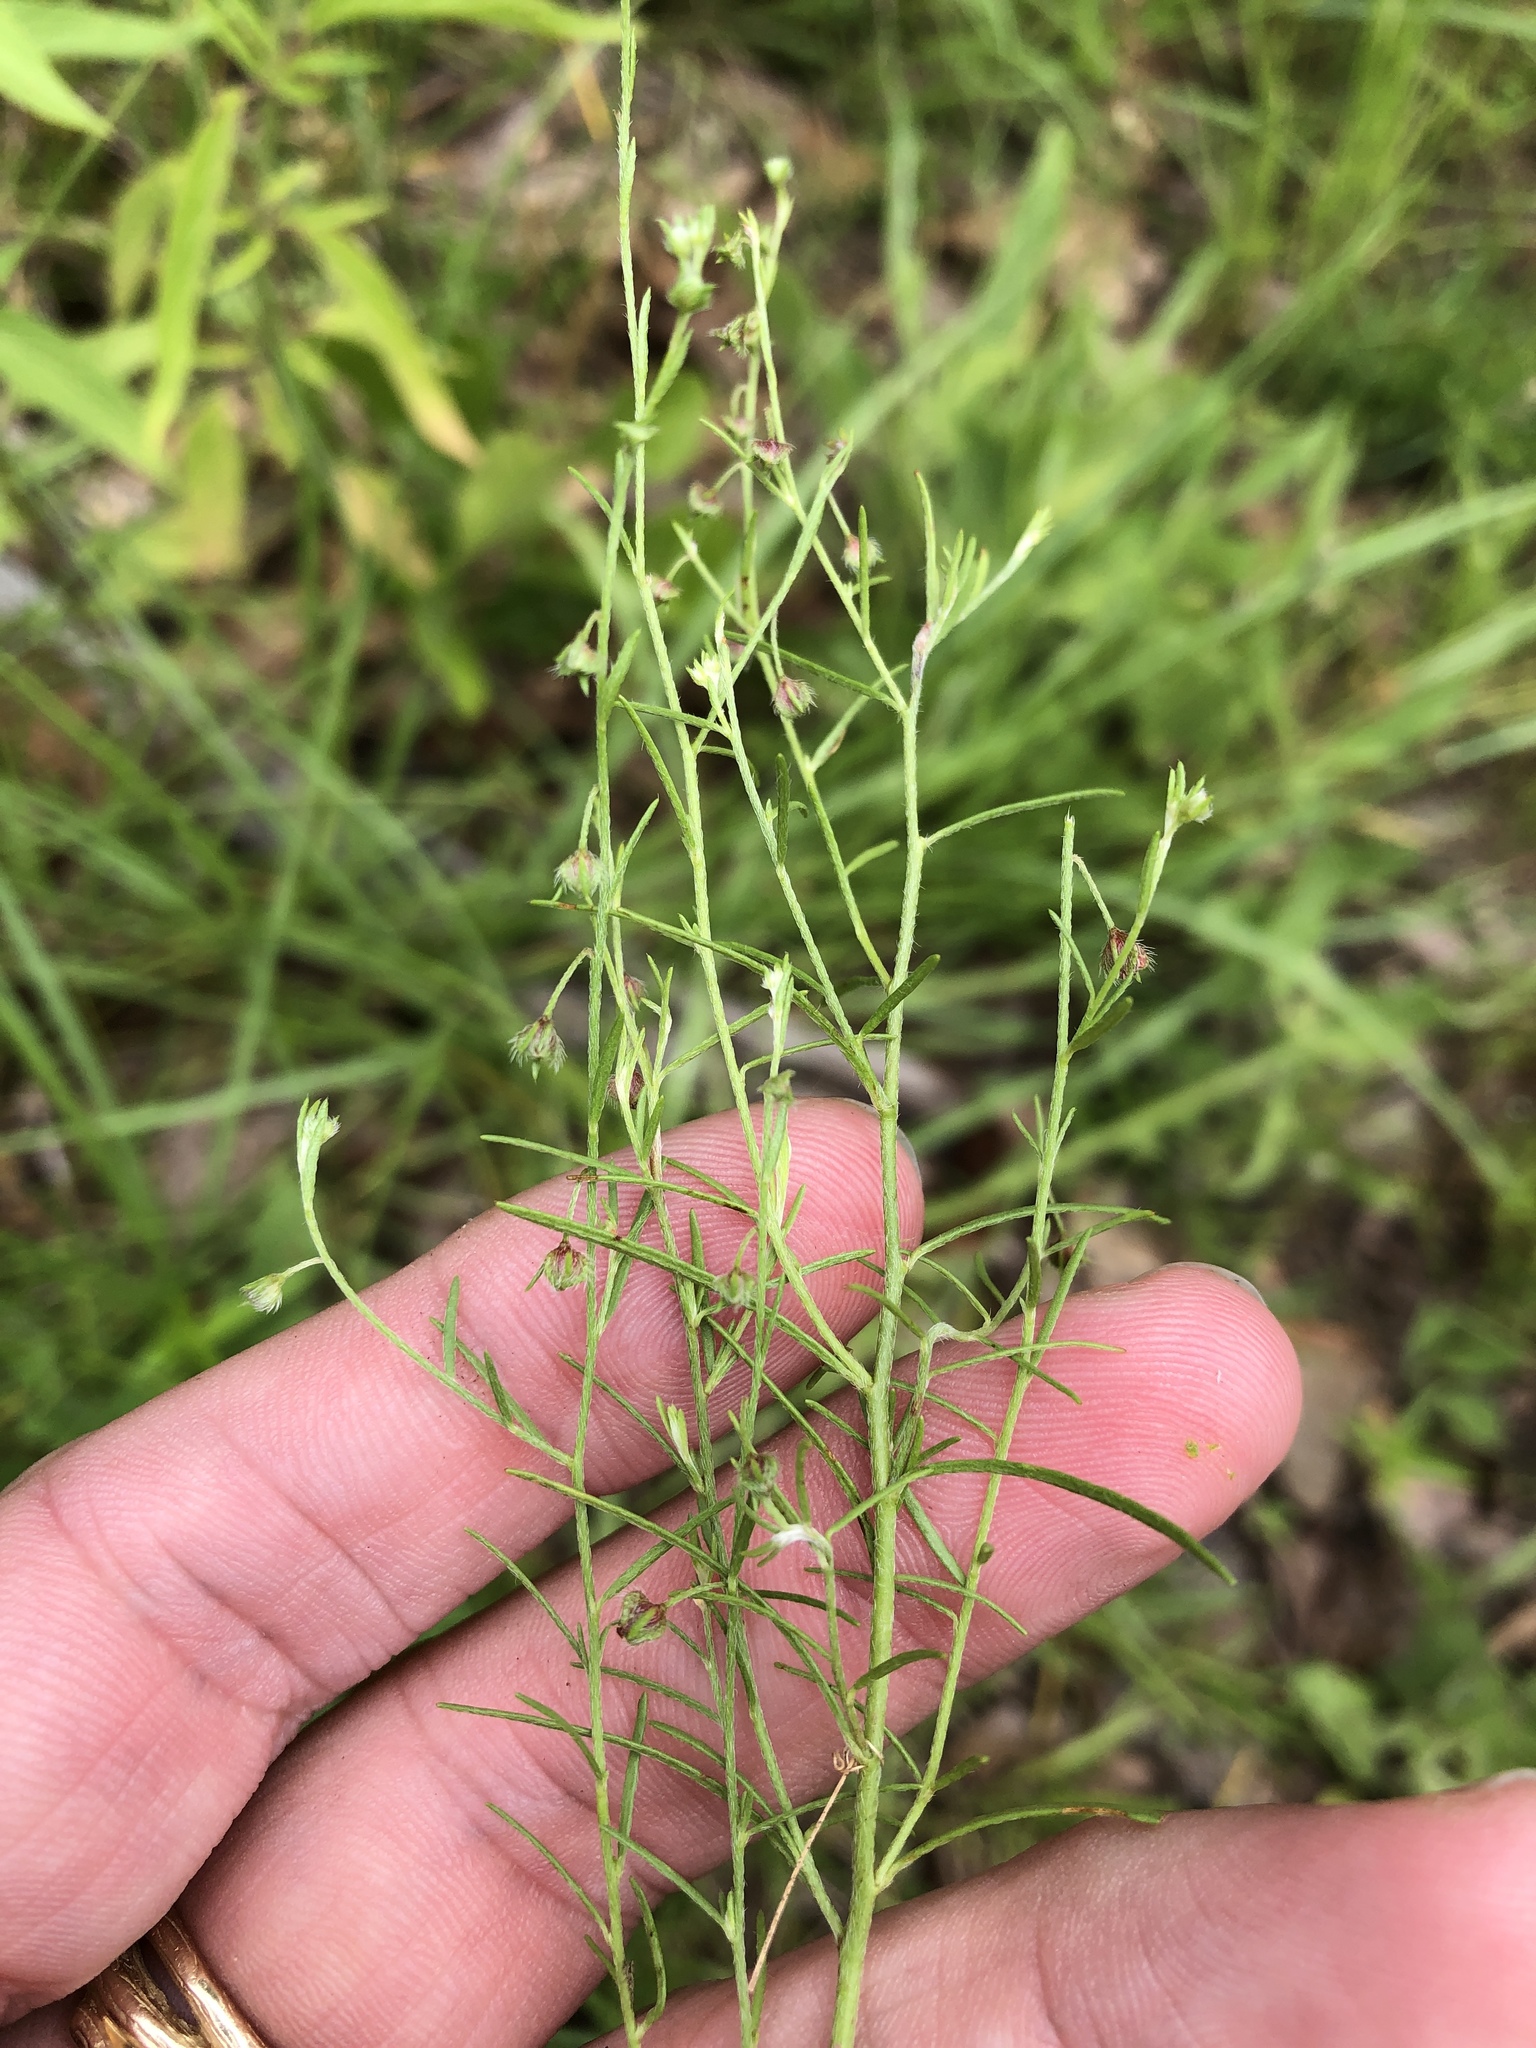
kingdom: Plantae
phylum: Tracheophyta
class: Magnoliopsida
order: Malvales
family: Cistaceae
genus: Lechea
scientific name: Lechea san-sabeana
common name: San saba pinweed
